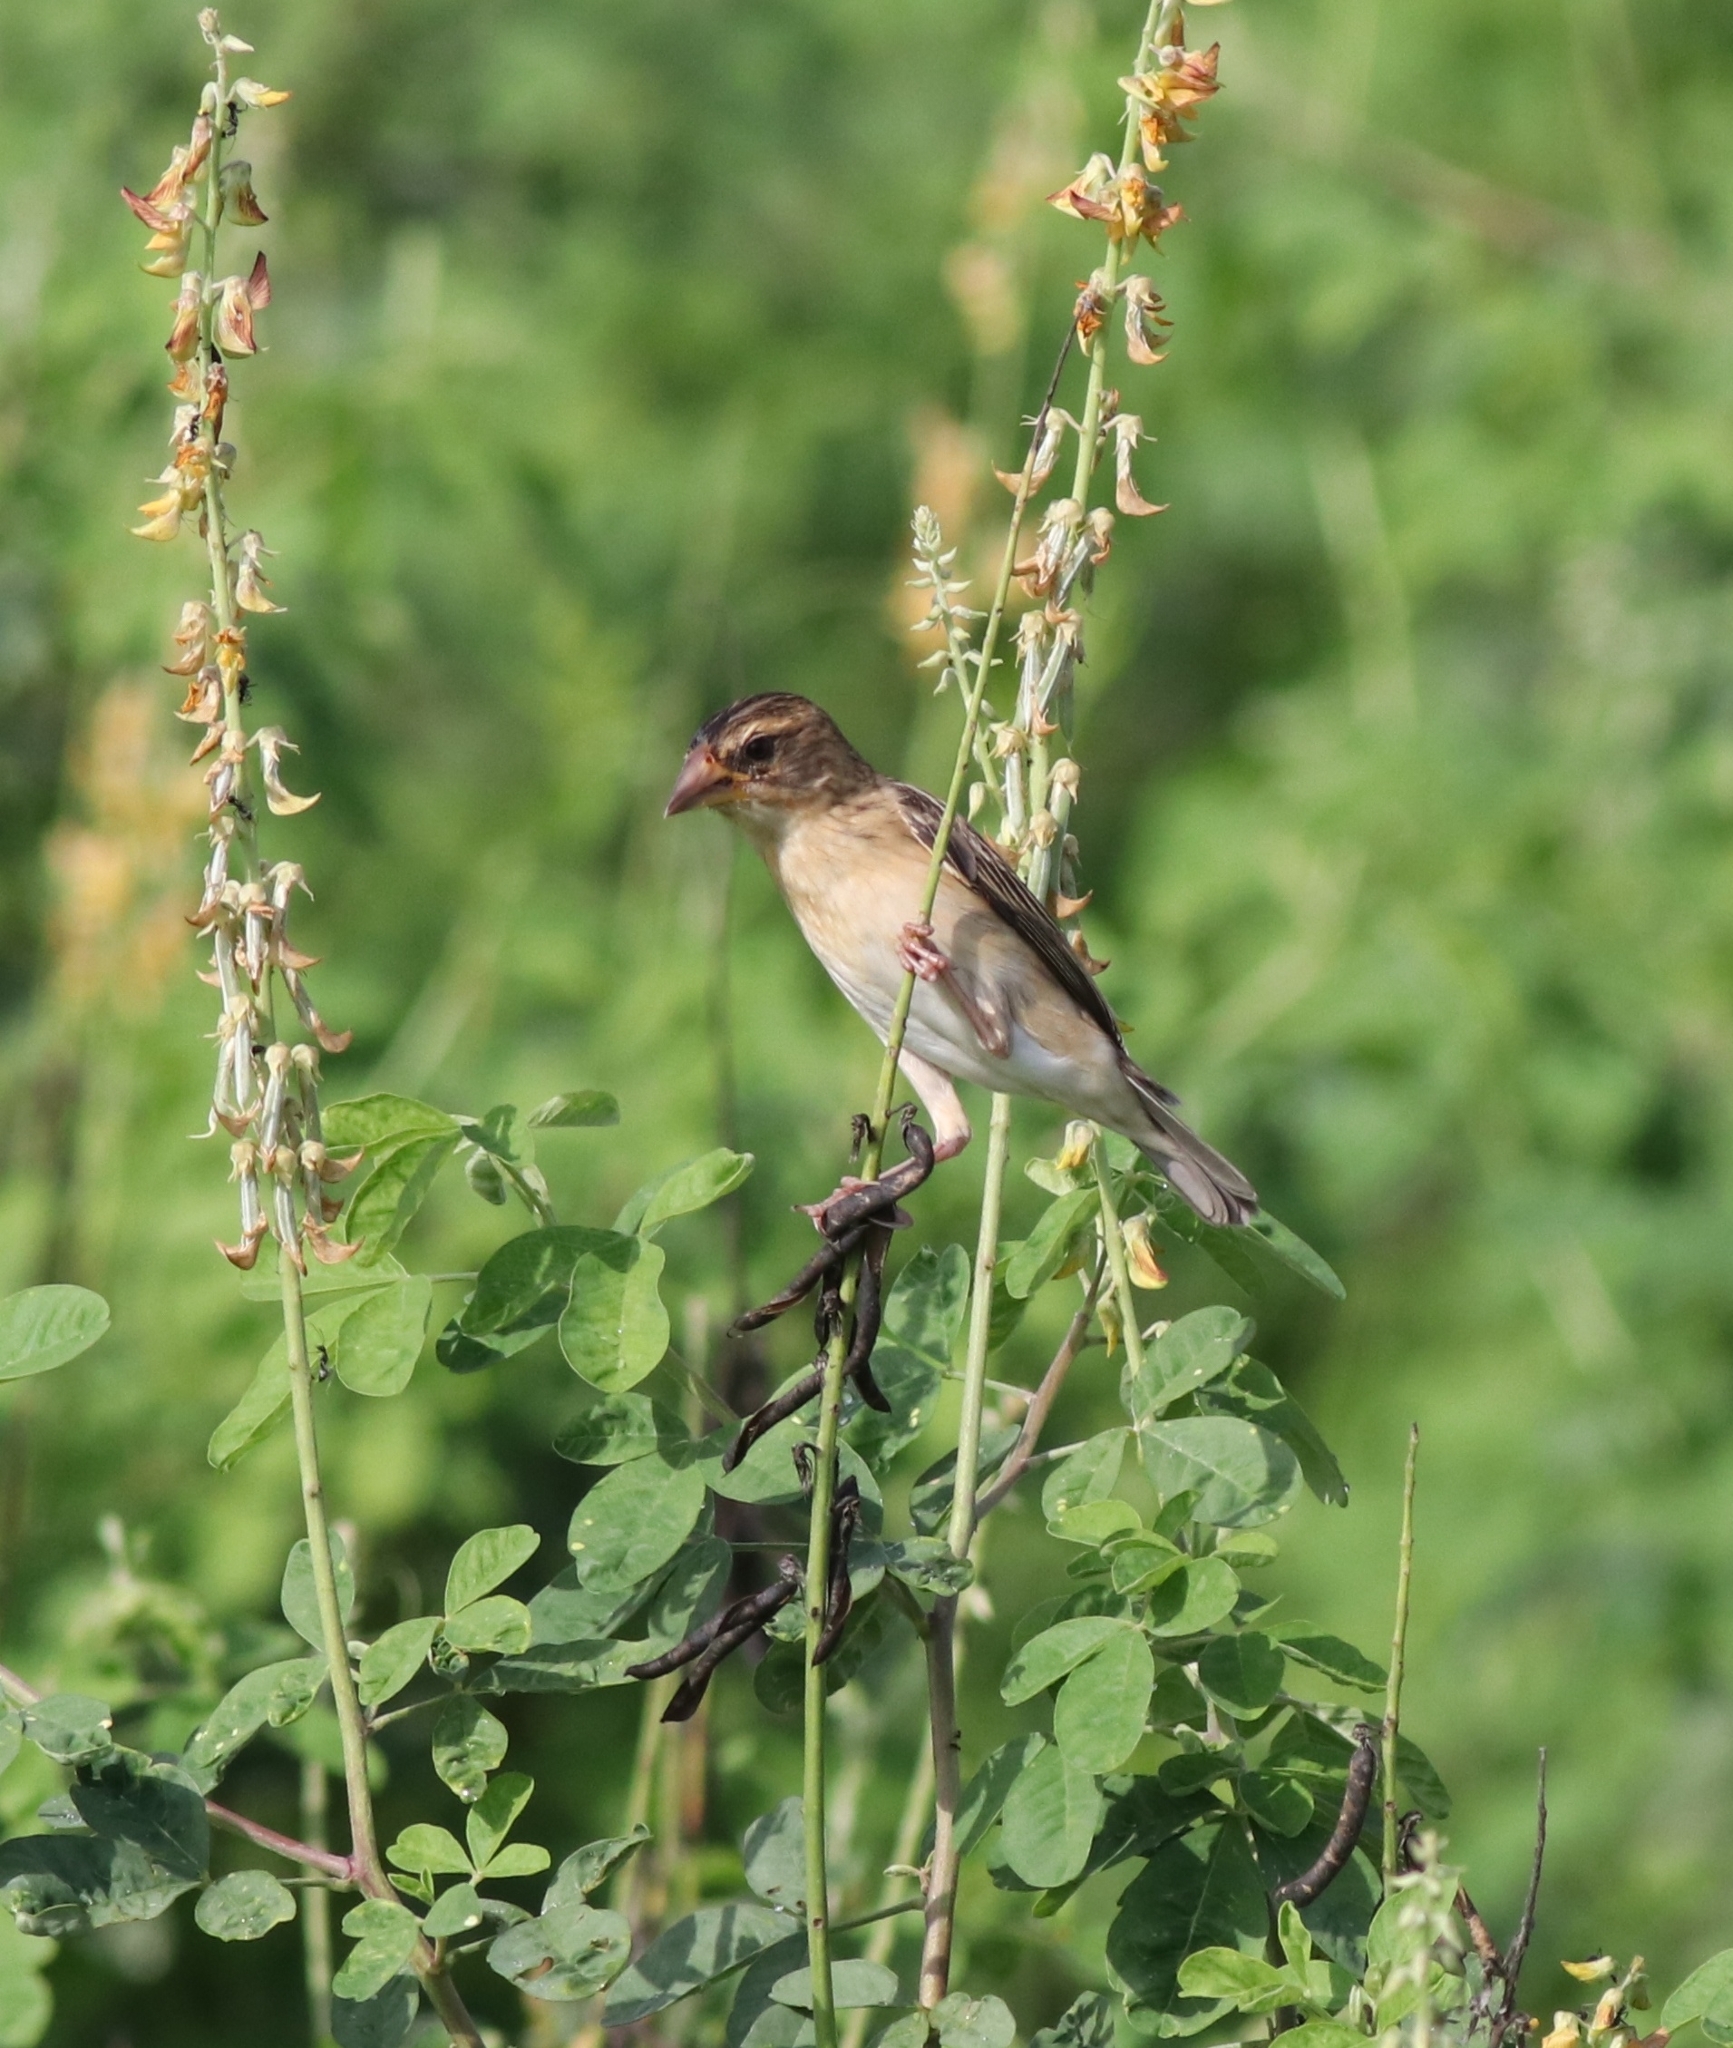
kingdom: Animalia
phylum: Chordata
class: Aves
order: Passeriformes
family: Ploceidae
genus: Ploceus
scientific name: Ploceus philippinus
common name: Baya weaver
